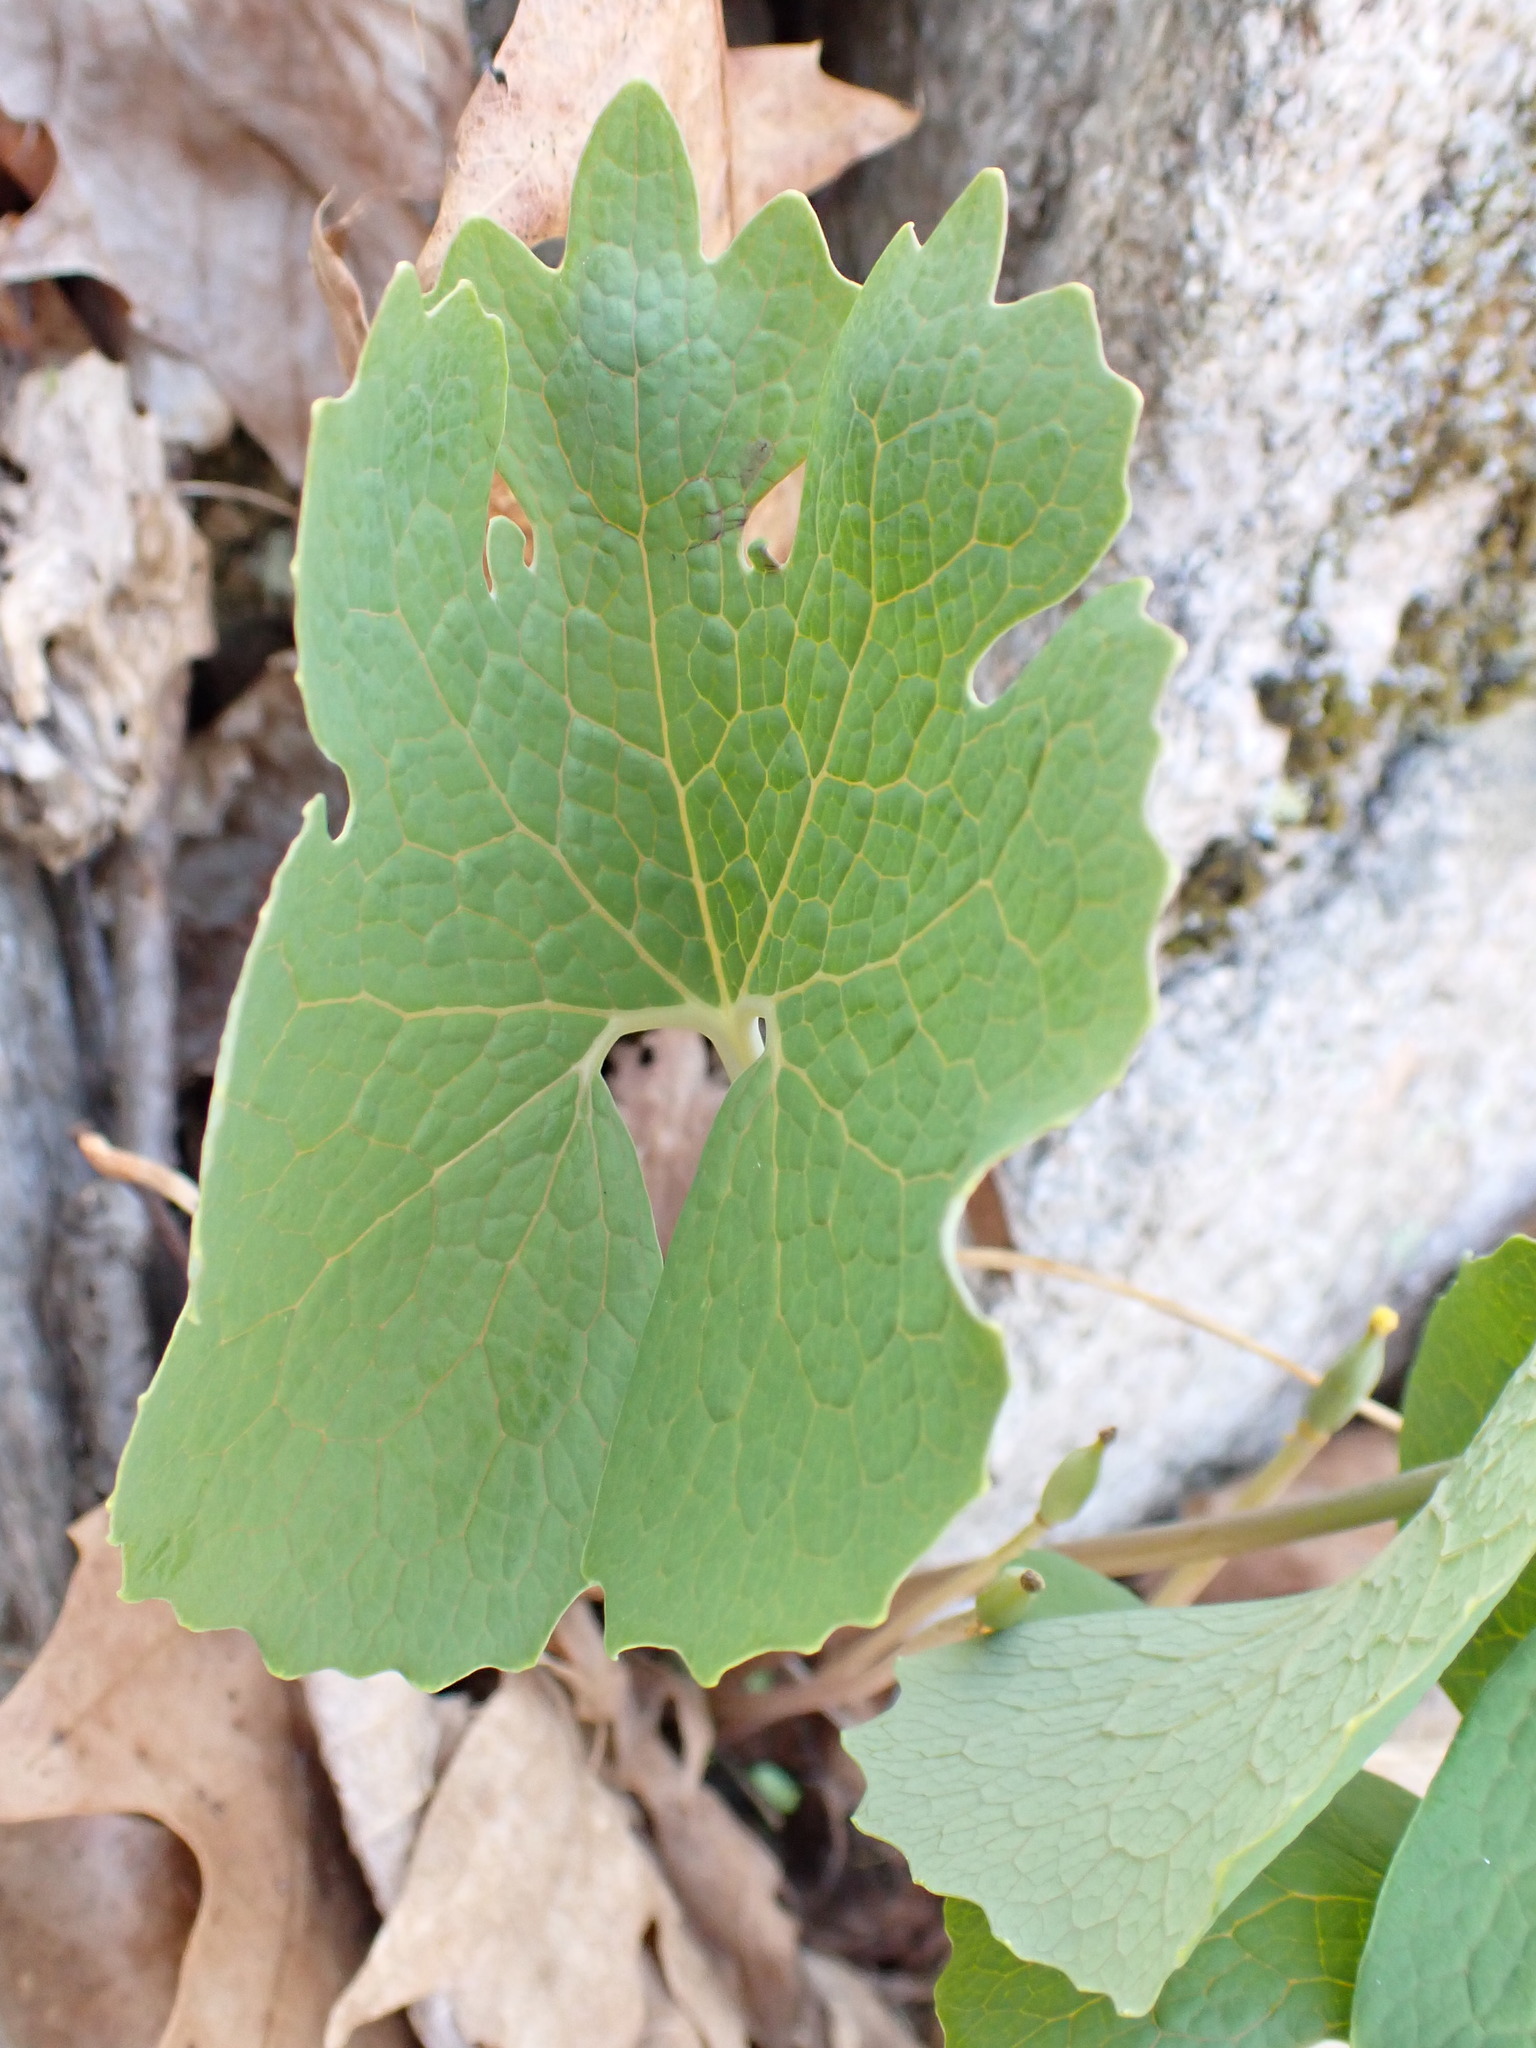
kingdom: Plantae
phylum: Tracheophyta
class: Magnoliopsida
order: Ranunculales
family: Papaveraceae
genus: Sanguinaria
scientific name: Sanguinaria canadensis
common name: Bloodroot
